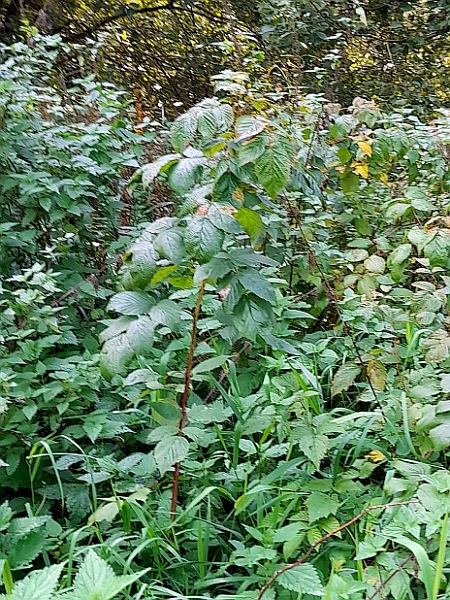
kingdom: Plantae
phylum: Tracheophyta
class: Magnoliopsida
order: Rosales
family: Rosaceae
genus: Rubus
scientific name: Rubus idaeus
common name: Raspberry
